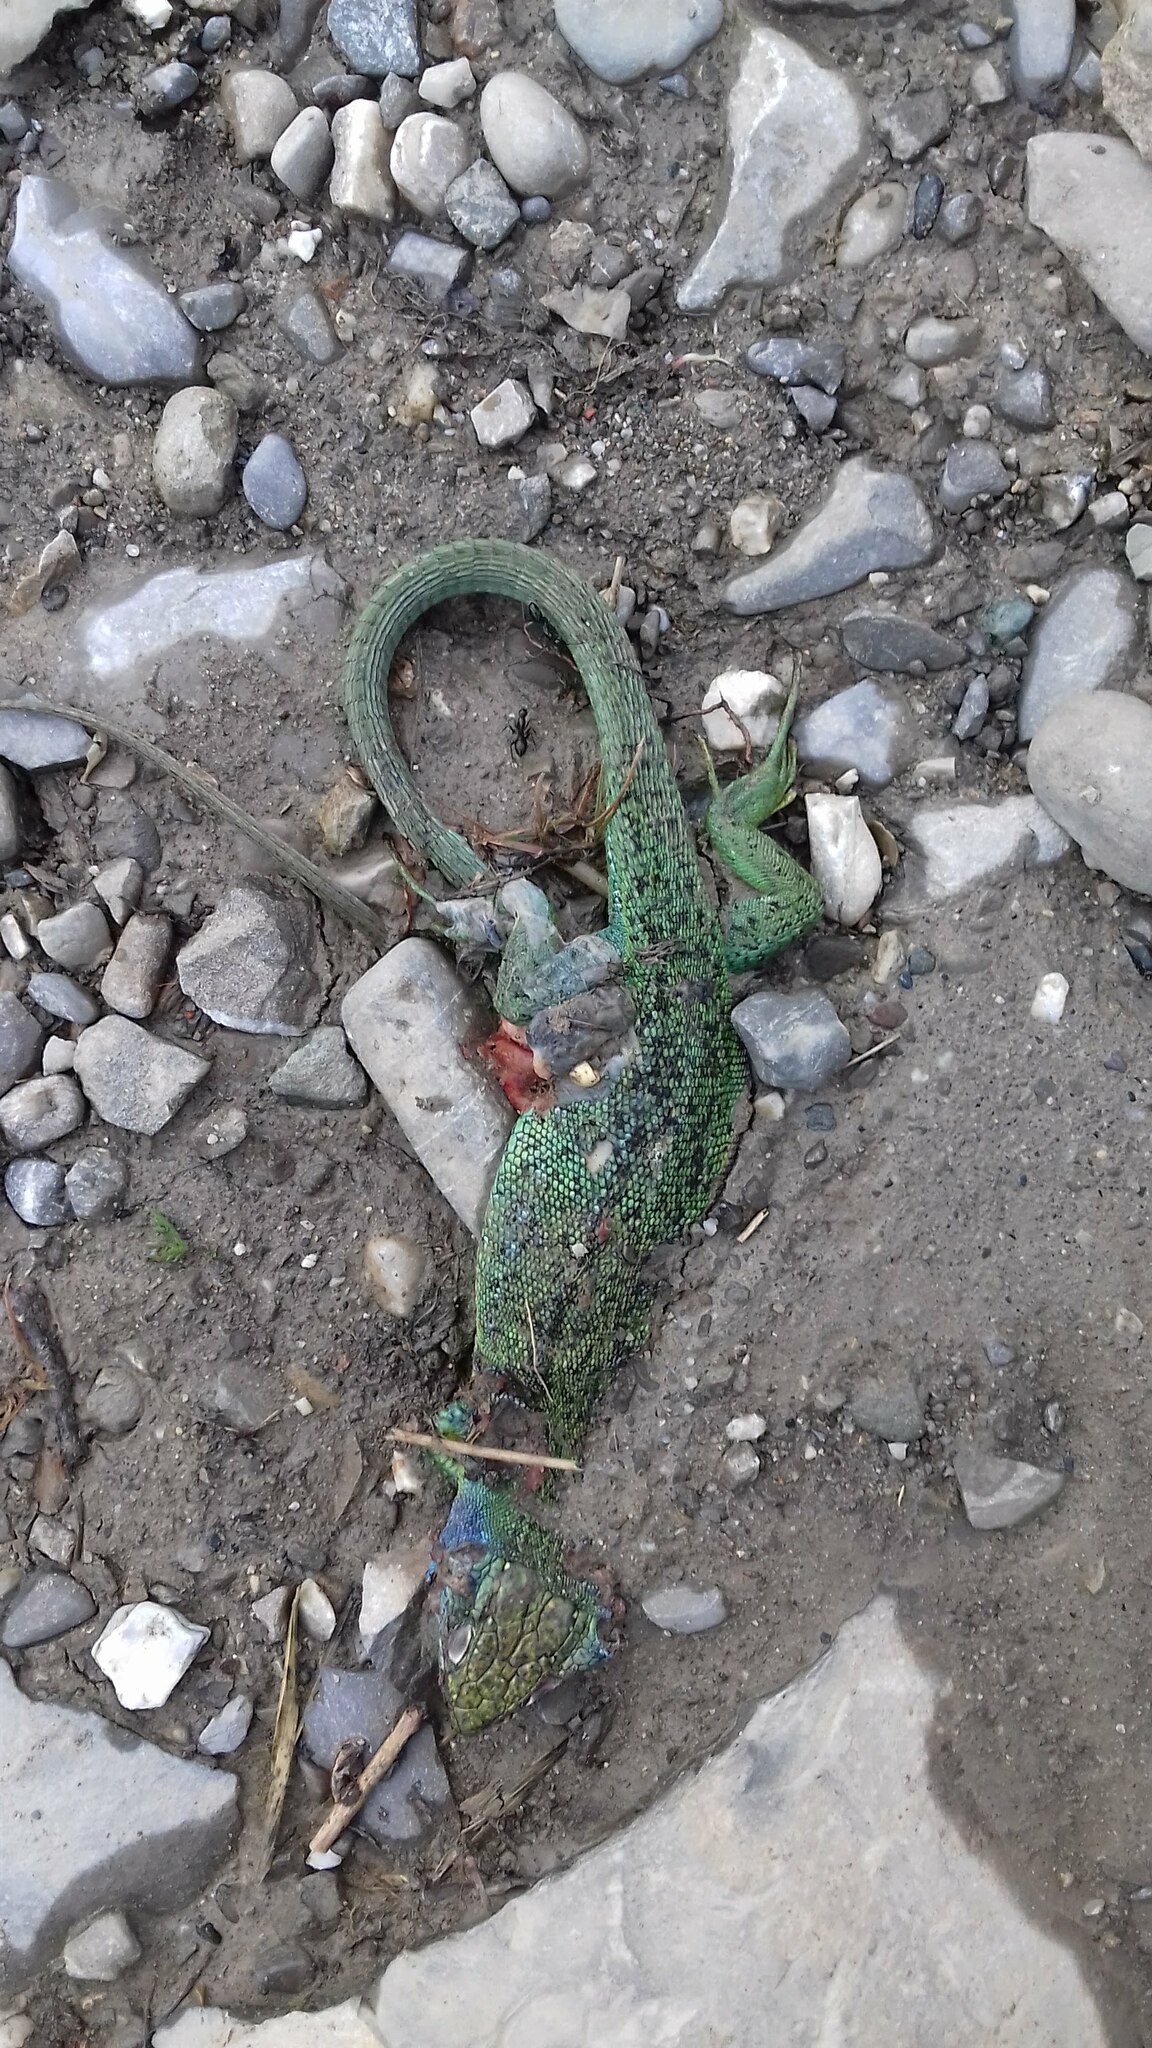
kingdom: Animalia
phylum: Chordata
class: Squamata
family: Lacertidae
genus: Lacerta
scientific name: Lacerta bilineata
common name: Western green lizard
